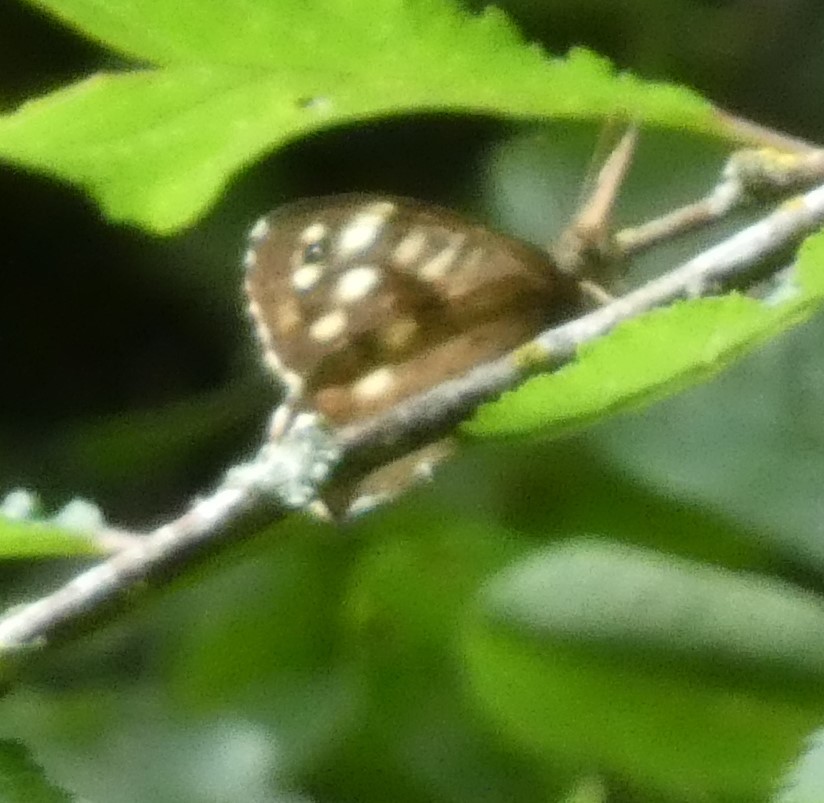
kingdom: Animalia
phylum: Arthropoda
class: Insecta
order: Lepidoptera
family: Nymphalidae
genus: Pararge
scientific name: Pararge aegeria
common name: Speckled wood
